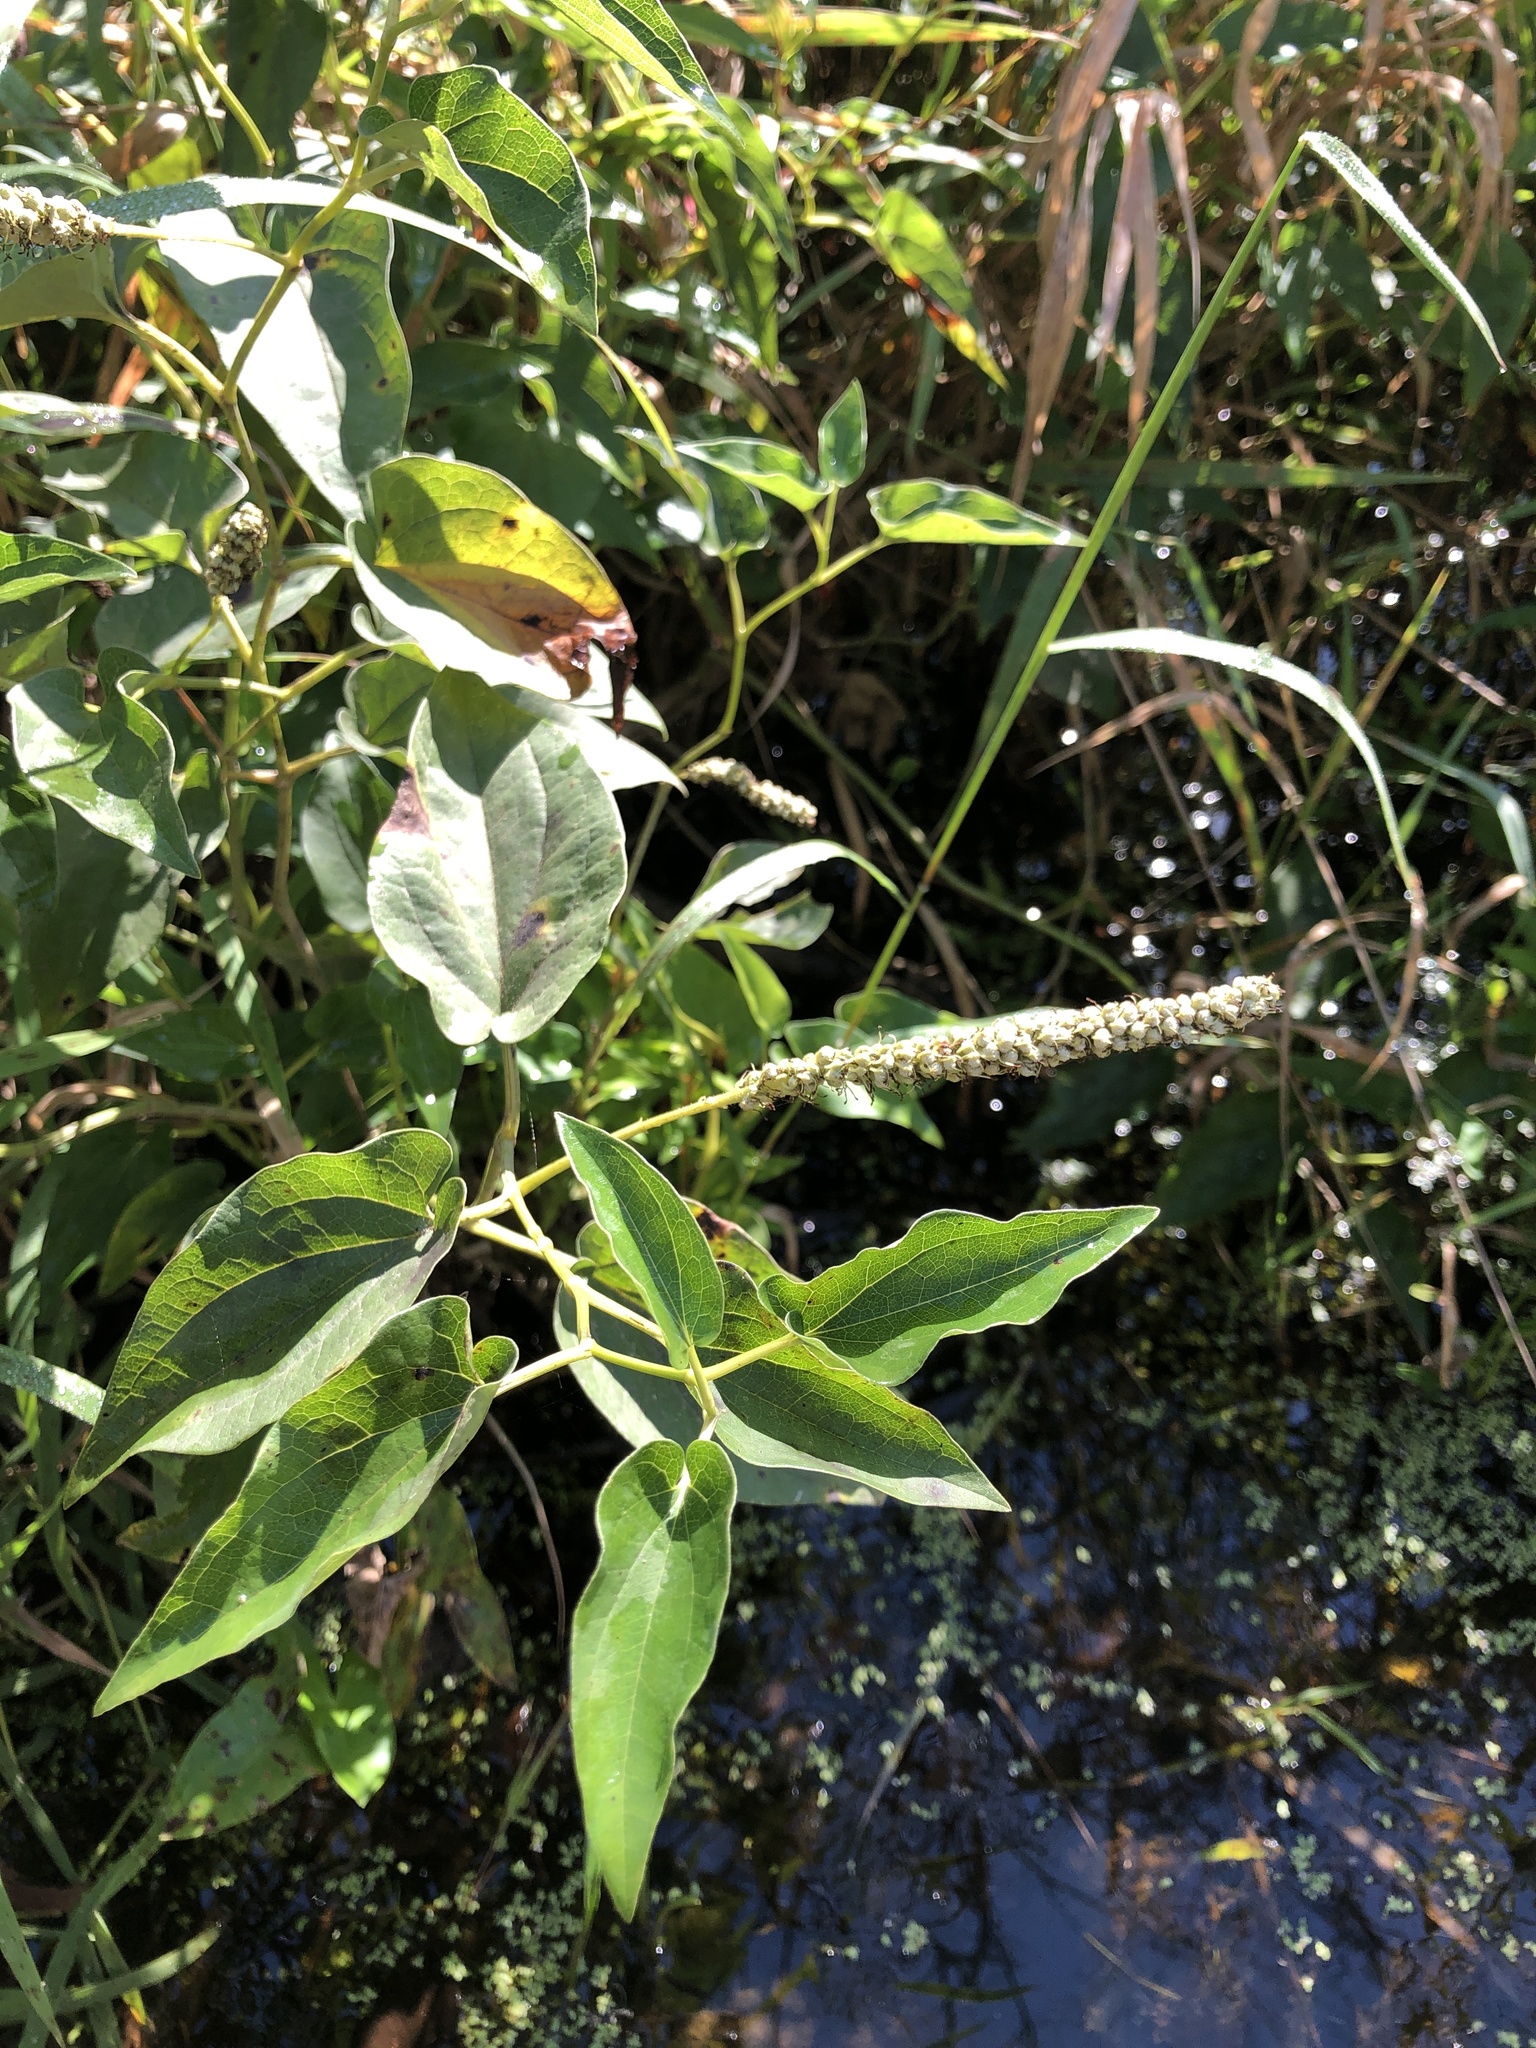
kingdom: Plantae
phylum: Tracheophyta
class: Magnoliopsida
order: Piperales
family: Saururaceae
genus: Saururus
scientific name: Saururus cernuus
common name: Lizard's-tail
